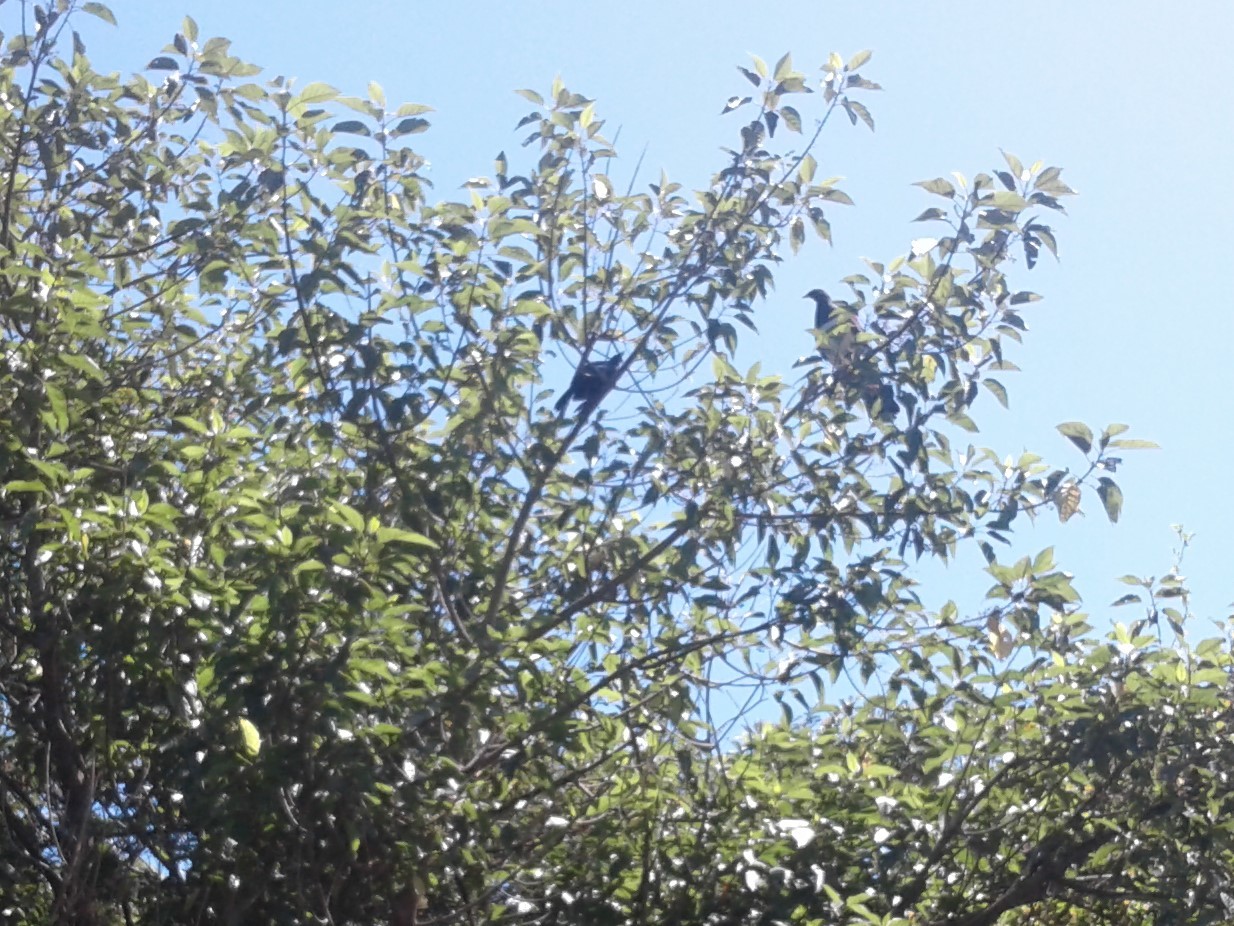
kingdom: Animalia
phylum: Chordata
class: Aves
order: Passeriformes
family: Meliphagidae
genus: Prosthemadera
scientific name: Prosthemadera novaeseelandiae
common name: Tui
